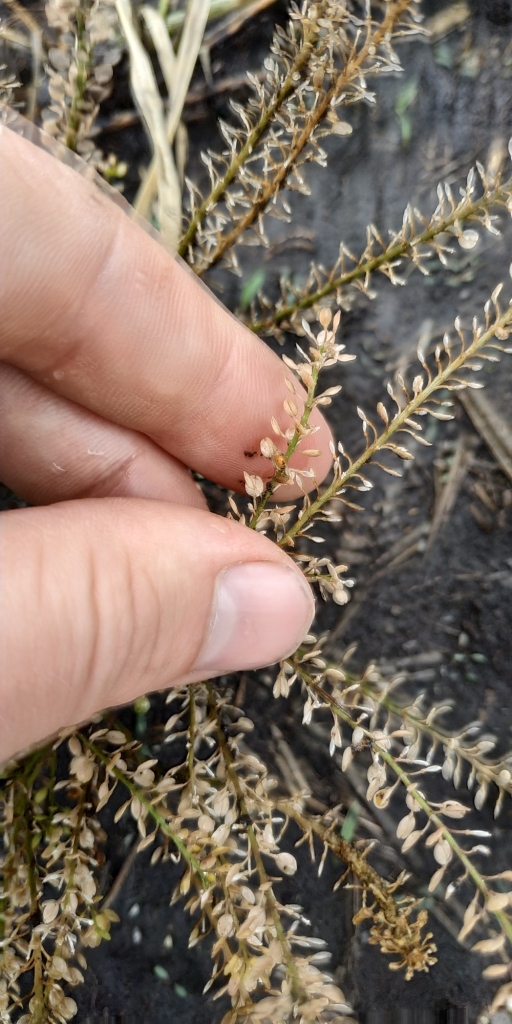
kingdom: Plantae
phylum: Tracheophyta
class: Magnoliopsida
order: Brassicales
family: Brassicaceae
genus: Lepidium
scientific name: Lepidium ruderale
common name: Narrow-leaved pepperwort
